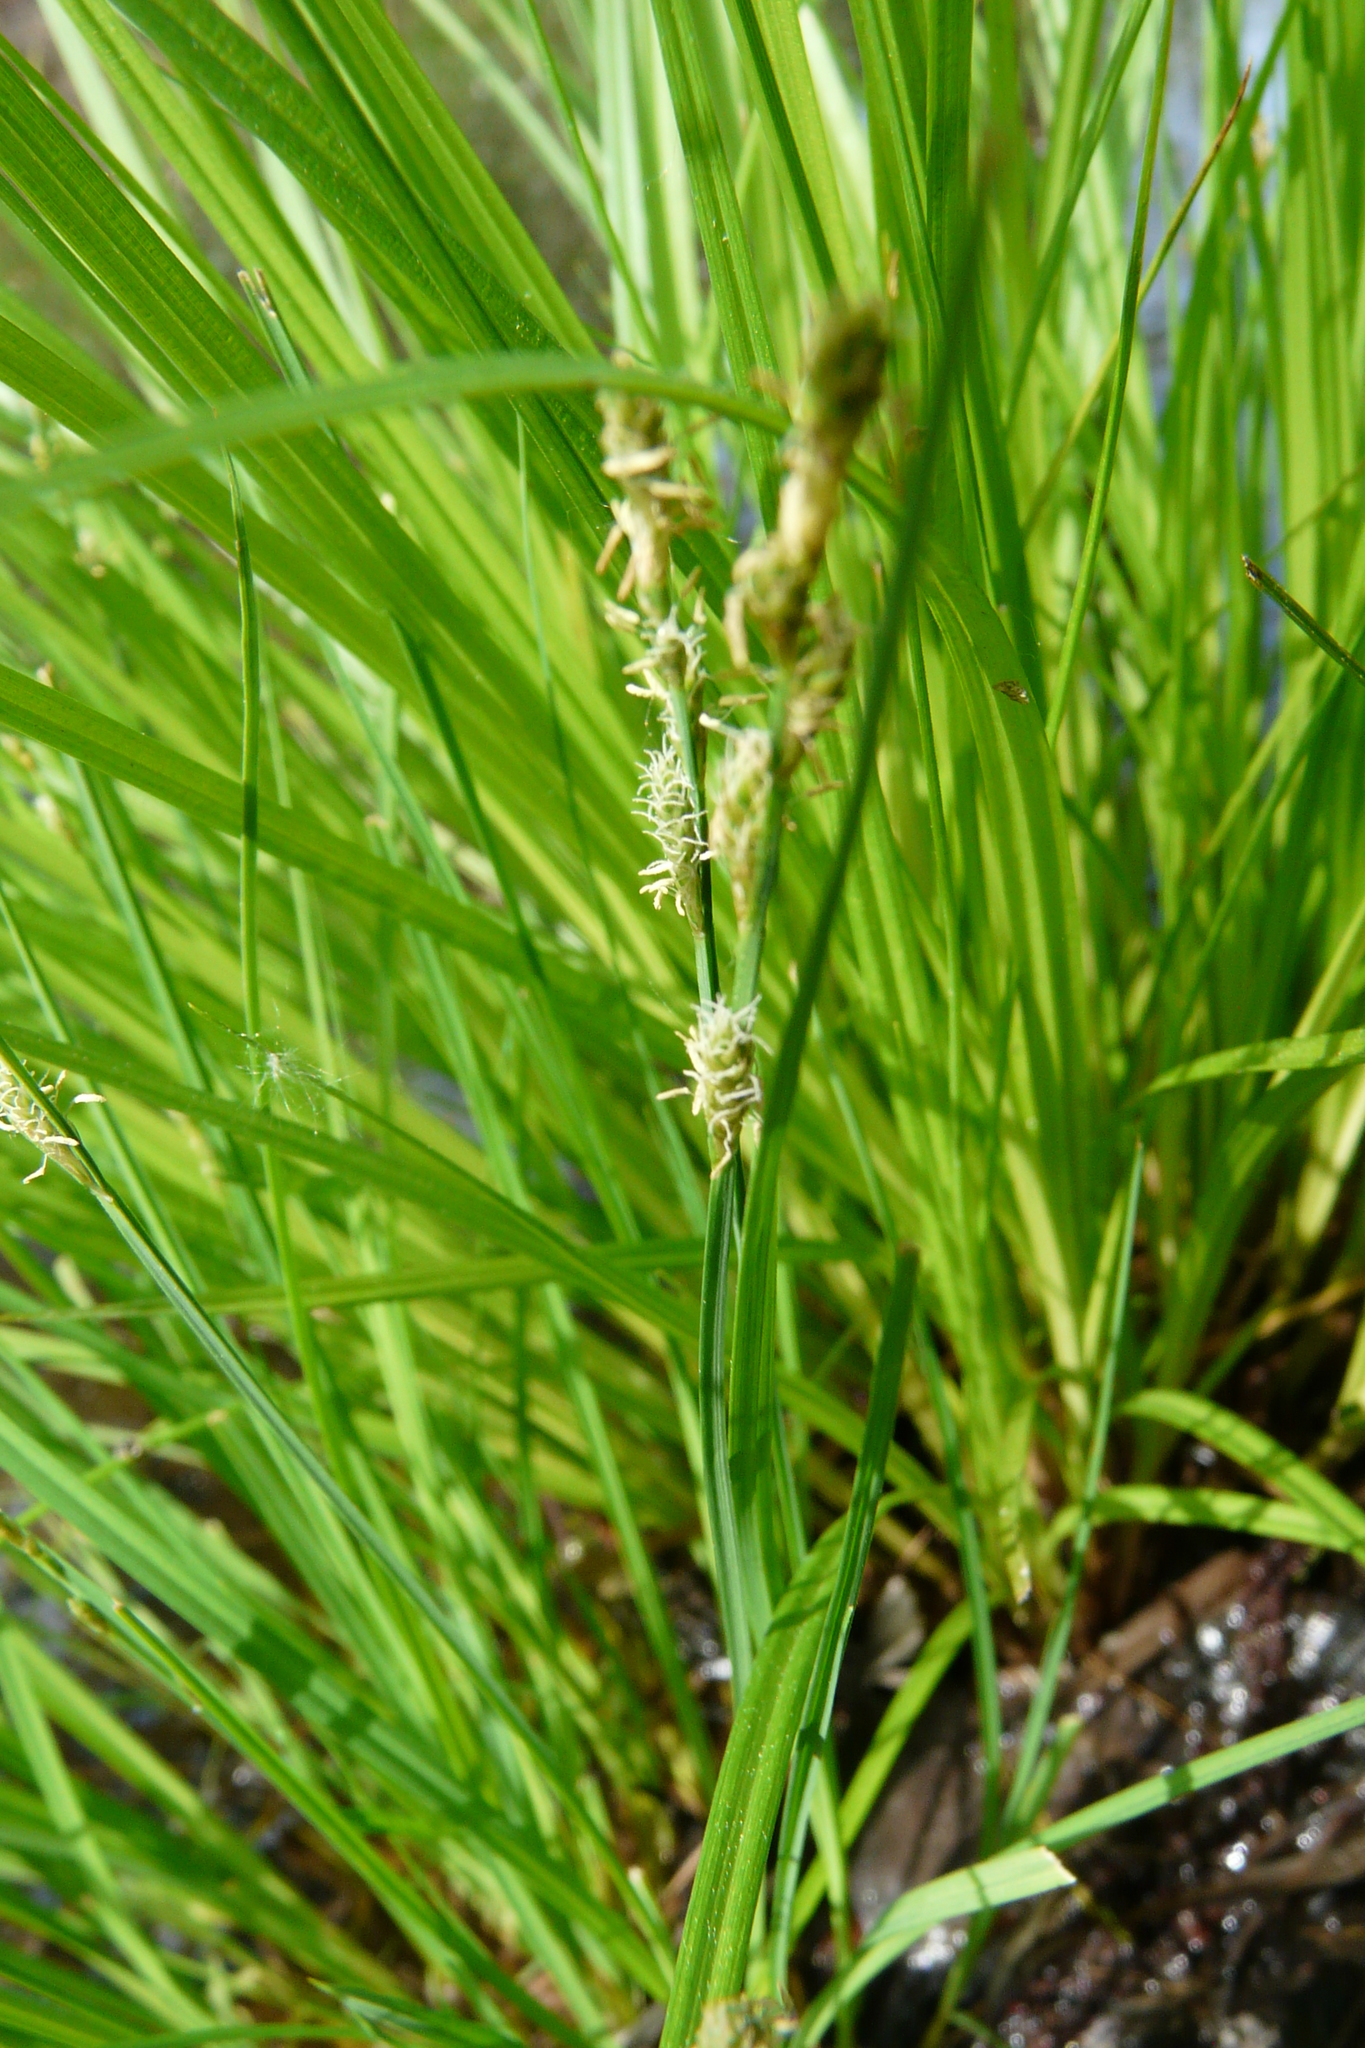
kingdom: Plantae
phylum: Tracheophyta
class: Liliopsida
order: Poales
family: Cyperaceae
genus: Carex
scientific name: Carex canescens
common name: White sedge
